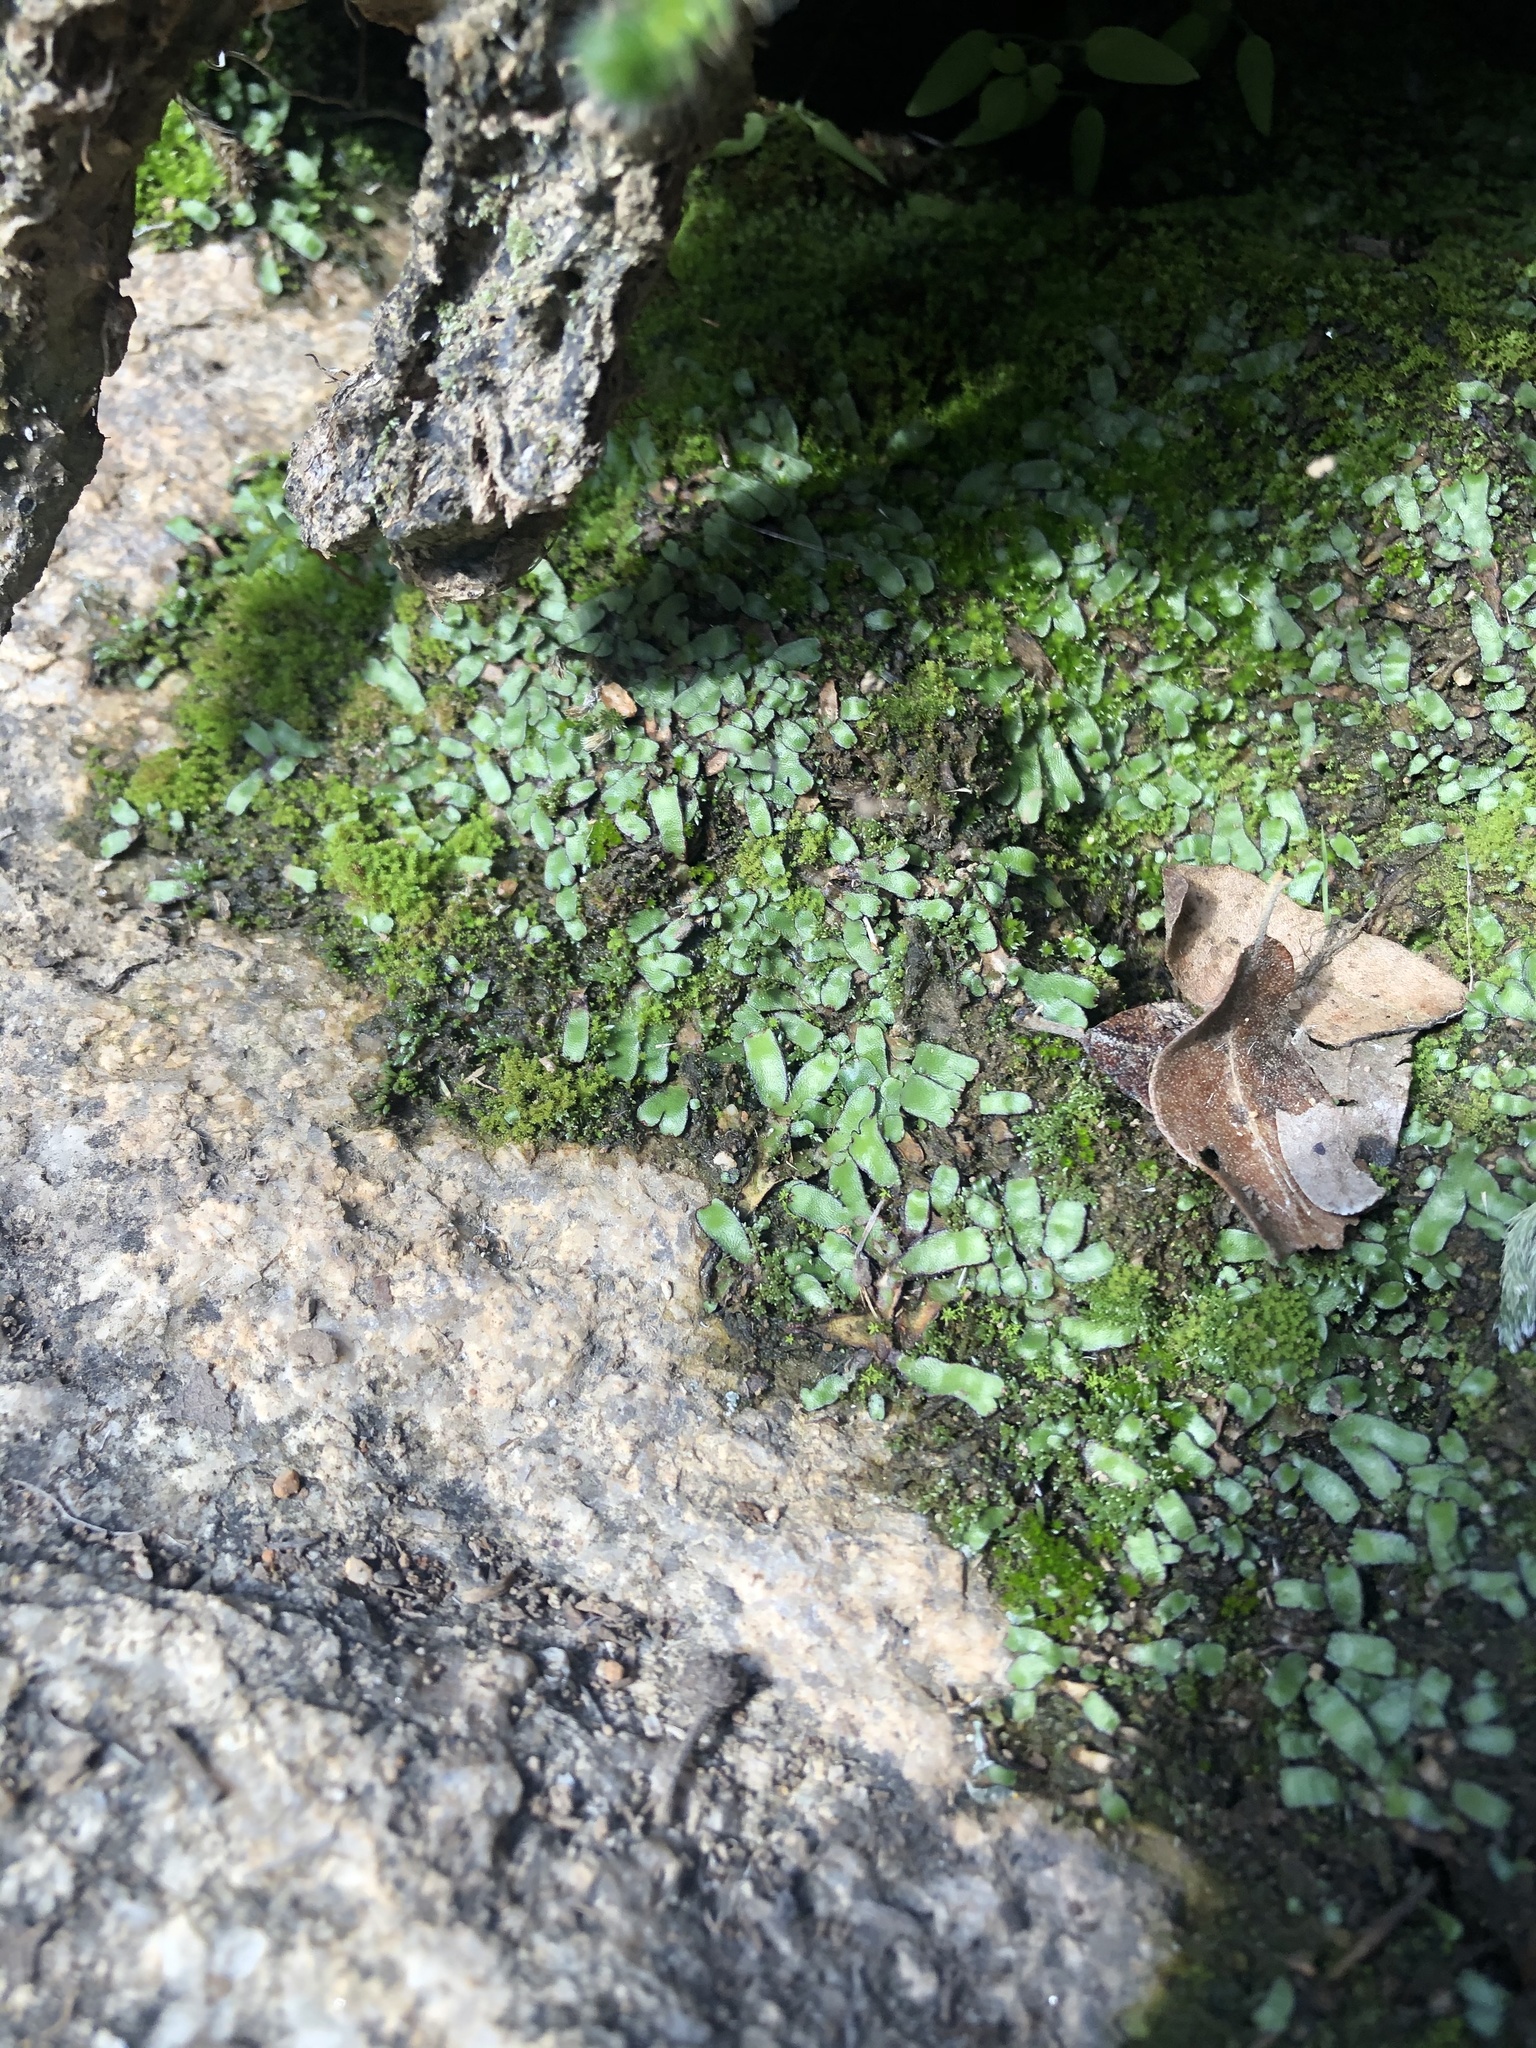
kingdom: Plantae
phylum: Marchantiophyta
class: Marchantiopsida
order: Marchantiales
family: Targioniaceae
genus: Targionia
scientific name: Targionia hypophylla
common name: Orobus-seed liverwort
